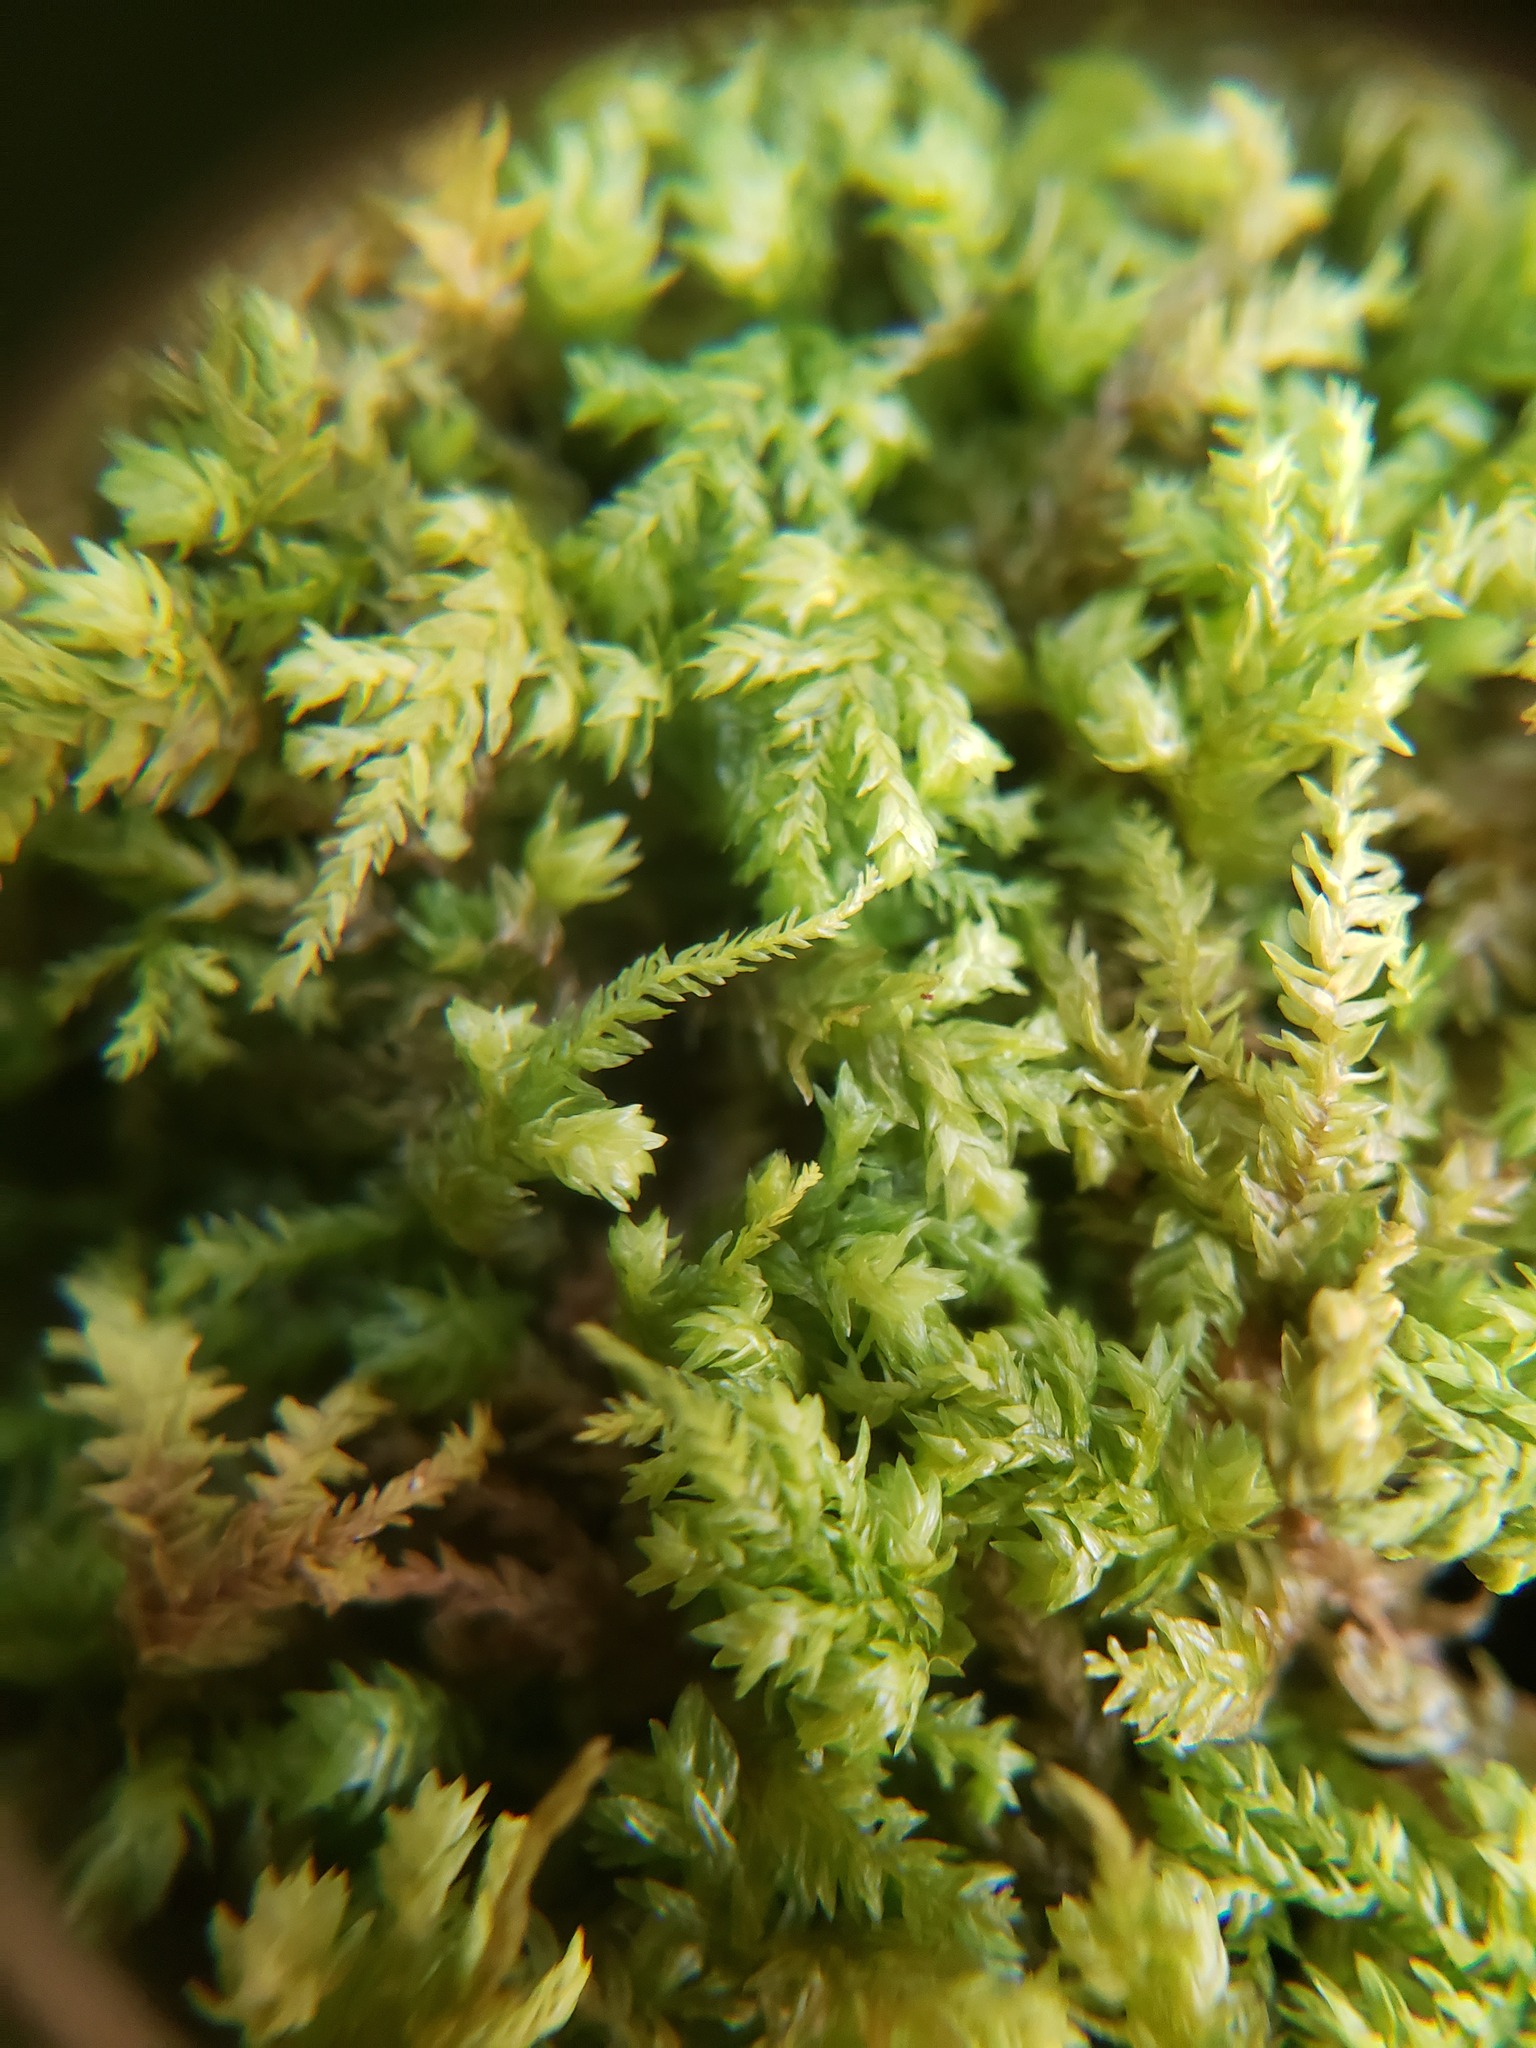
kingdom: Plantae
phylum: Bryophyta
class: Bryopsida
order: Hypnales
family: Neckeraceae
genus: Pseudanomodon
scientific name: Pseudanomodon attenuatus
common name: Tree-skirt moss
